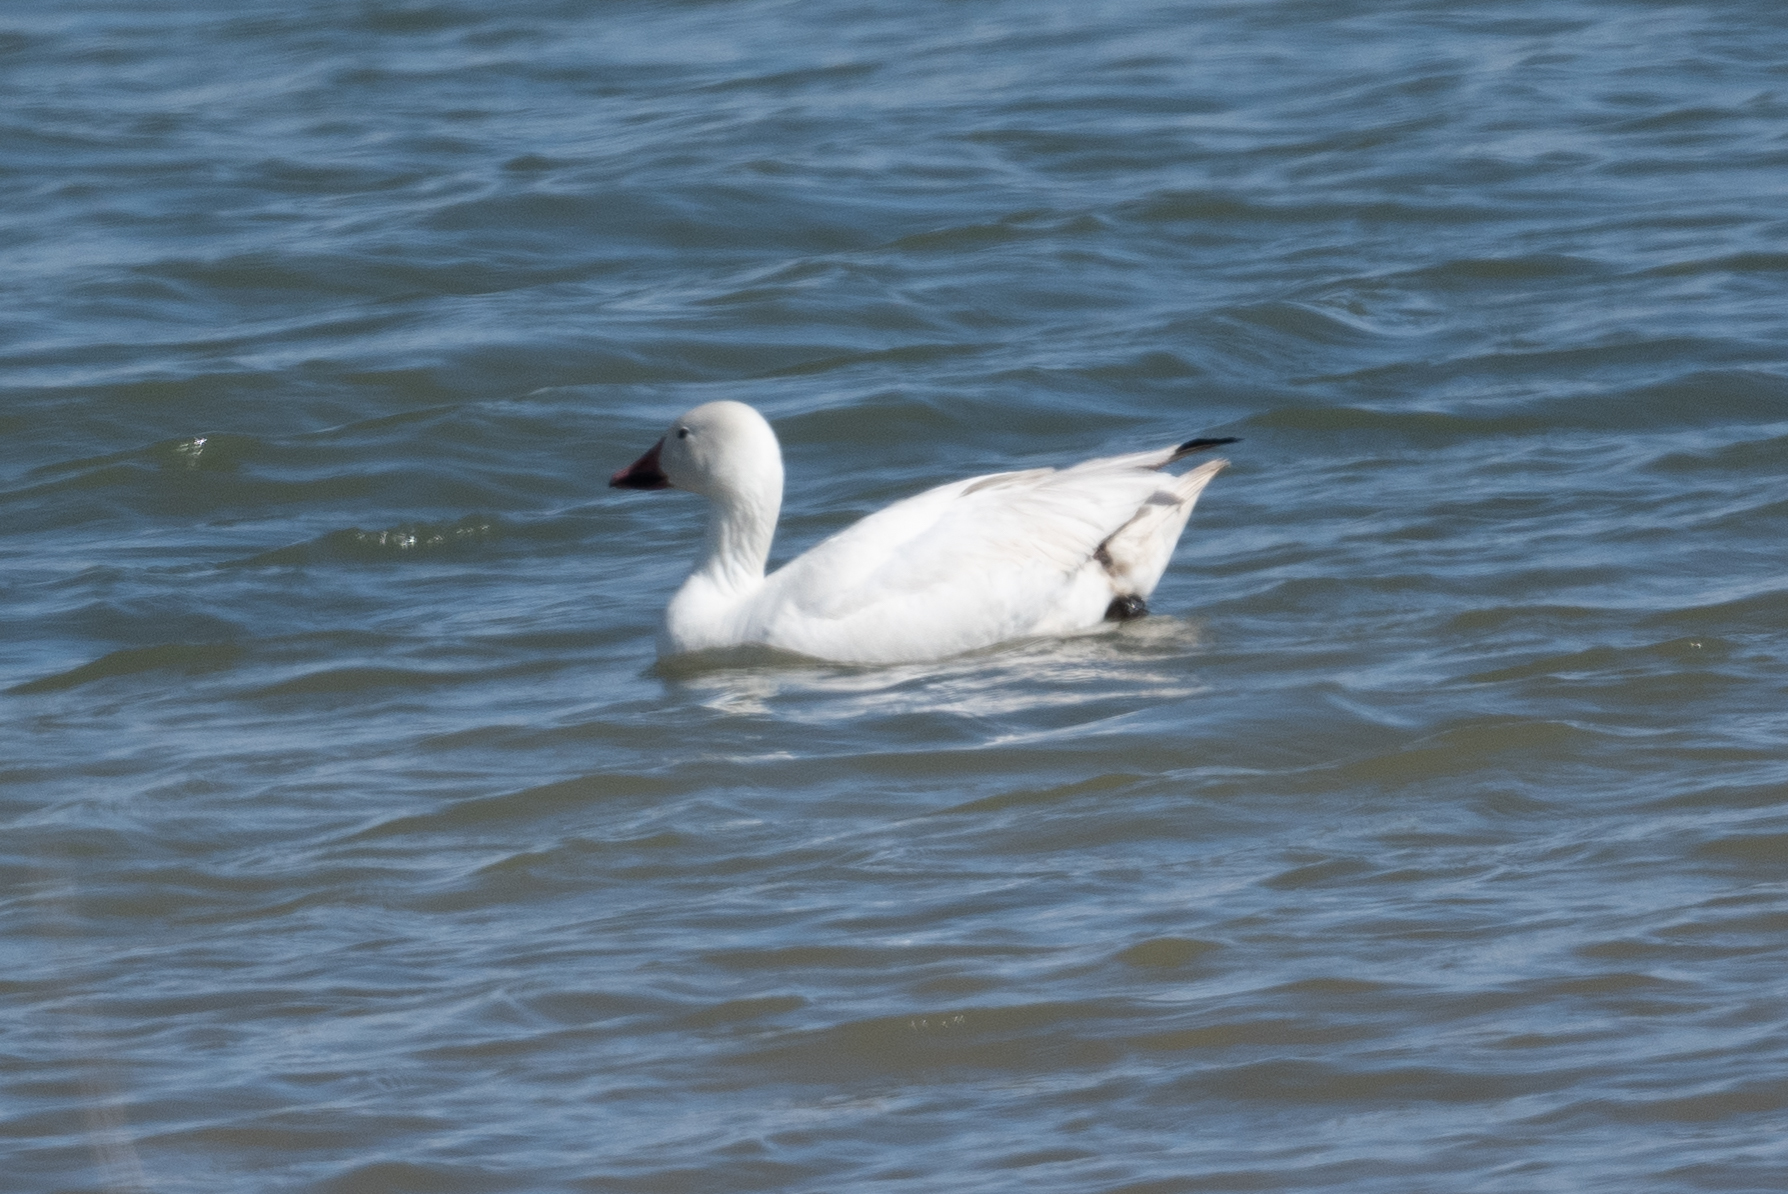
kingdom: Animalia
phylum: Chordata
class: Aves
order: Anseriformes
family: Anatidae
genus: Anser
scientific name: Anser caerulescens
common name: Snow goose
